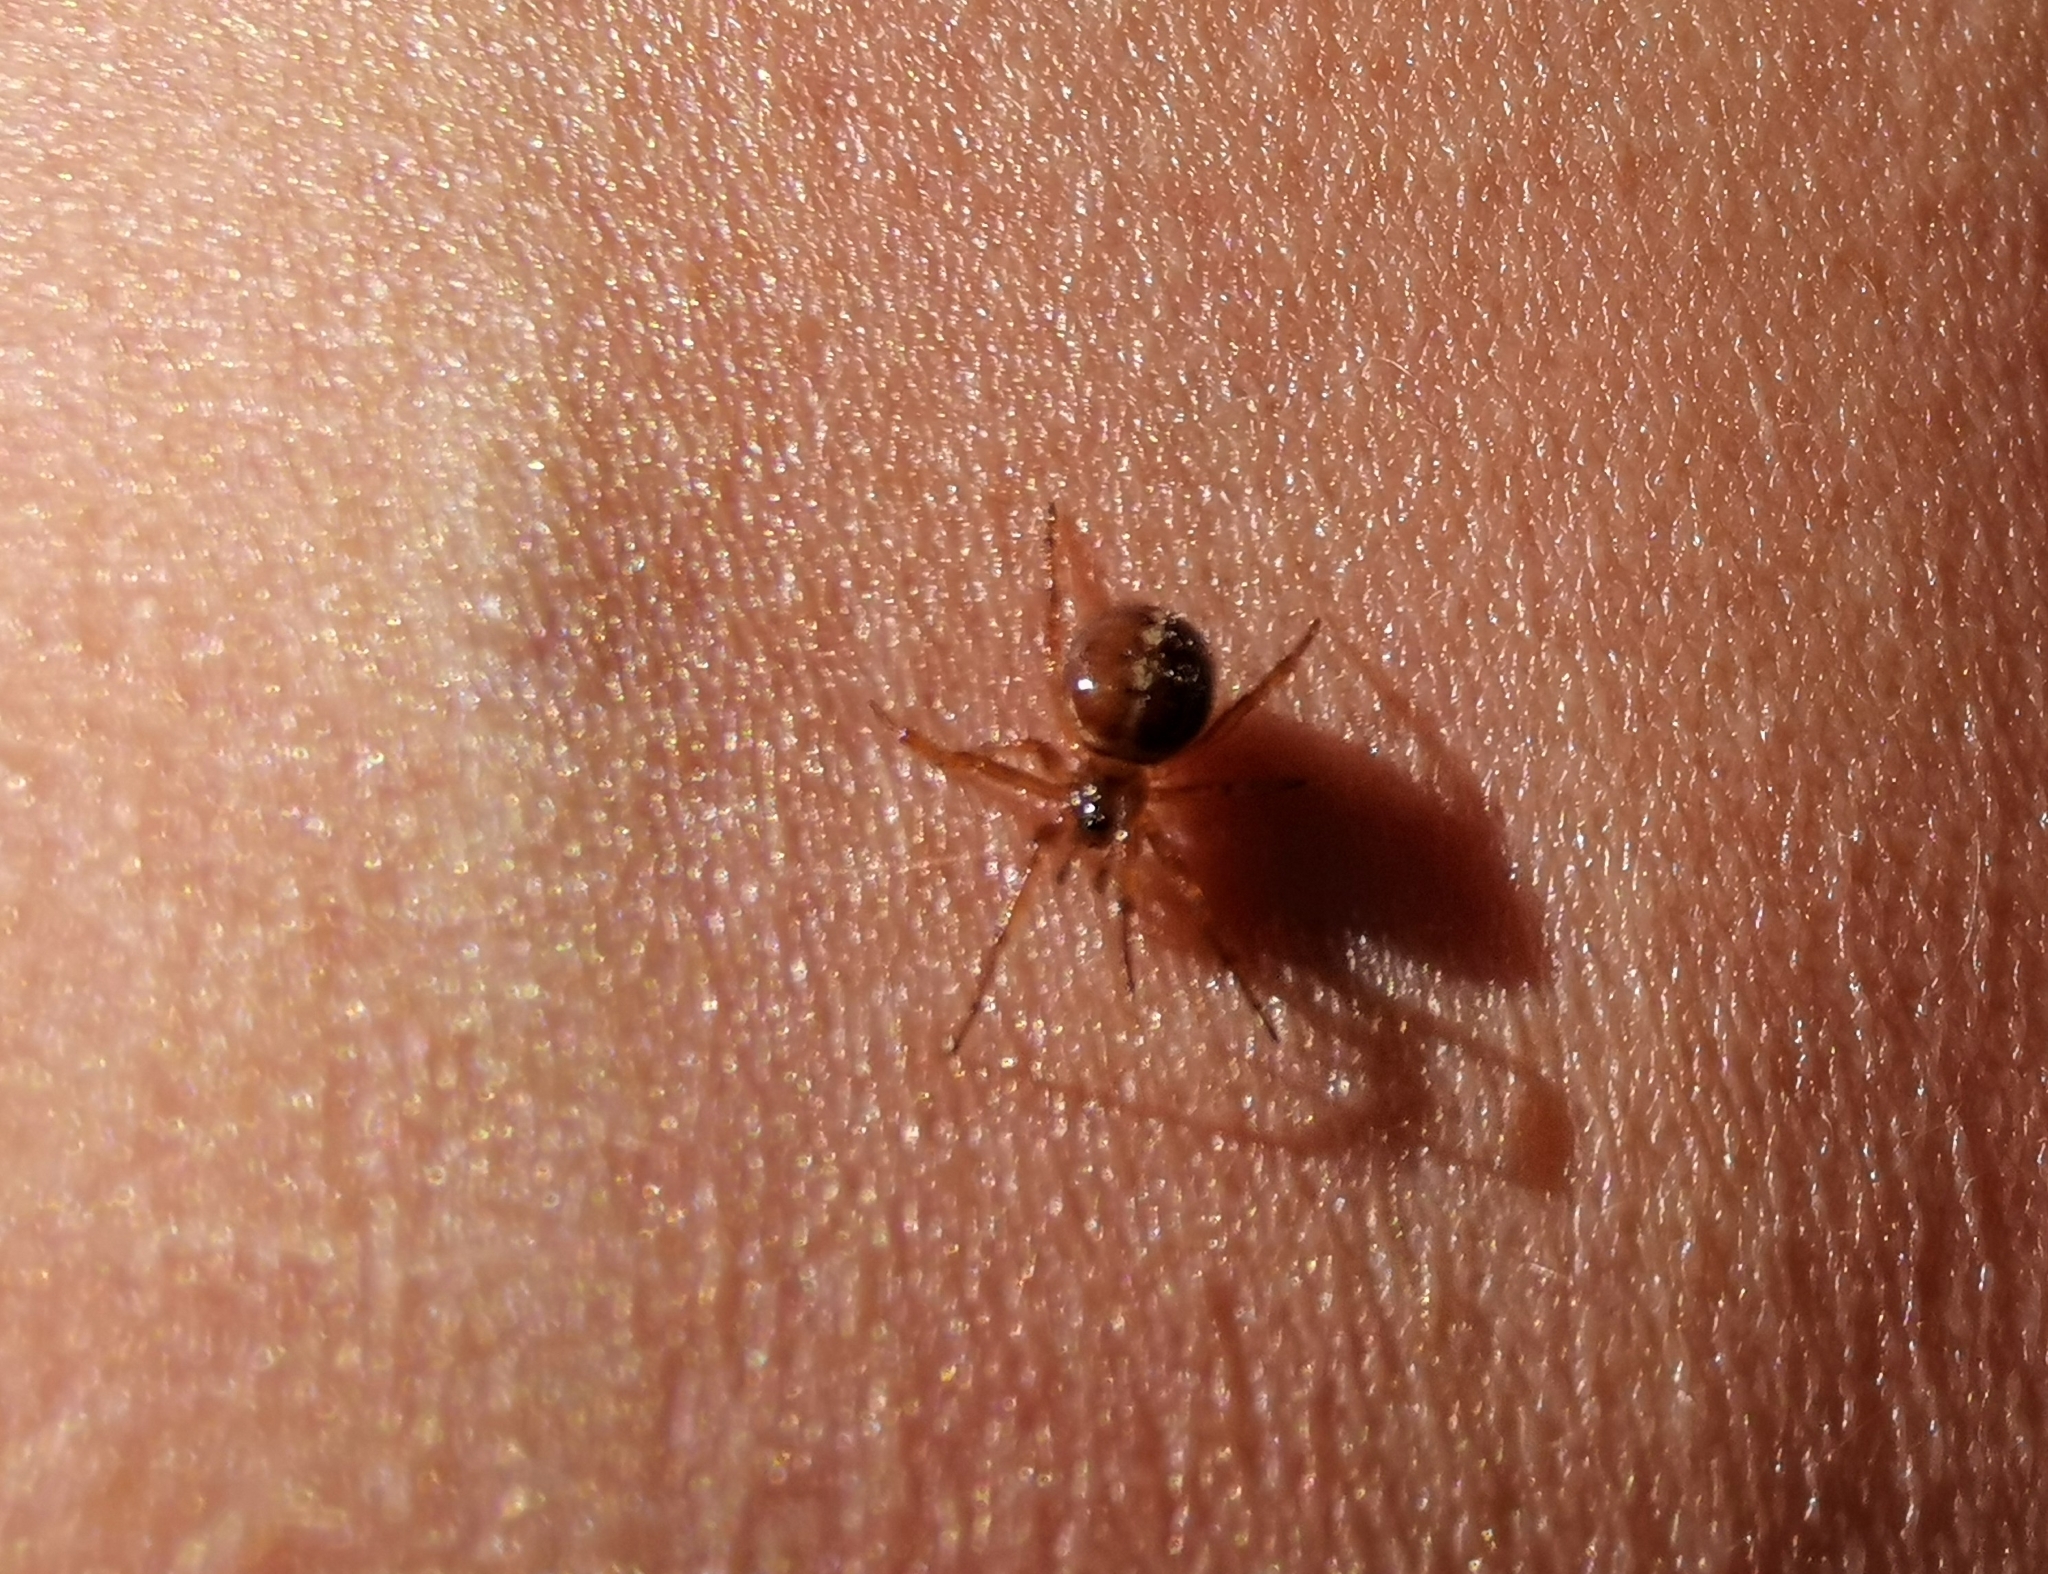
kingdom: Animalia
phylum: Arthropoda
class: Arachnida
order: Araneae
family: Theridiidae
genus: Steatoda
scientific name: Steatoda bipunctata
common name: False widow
